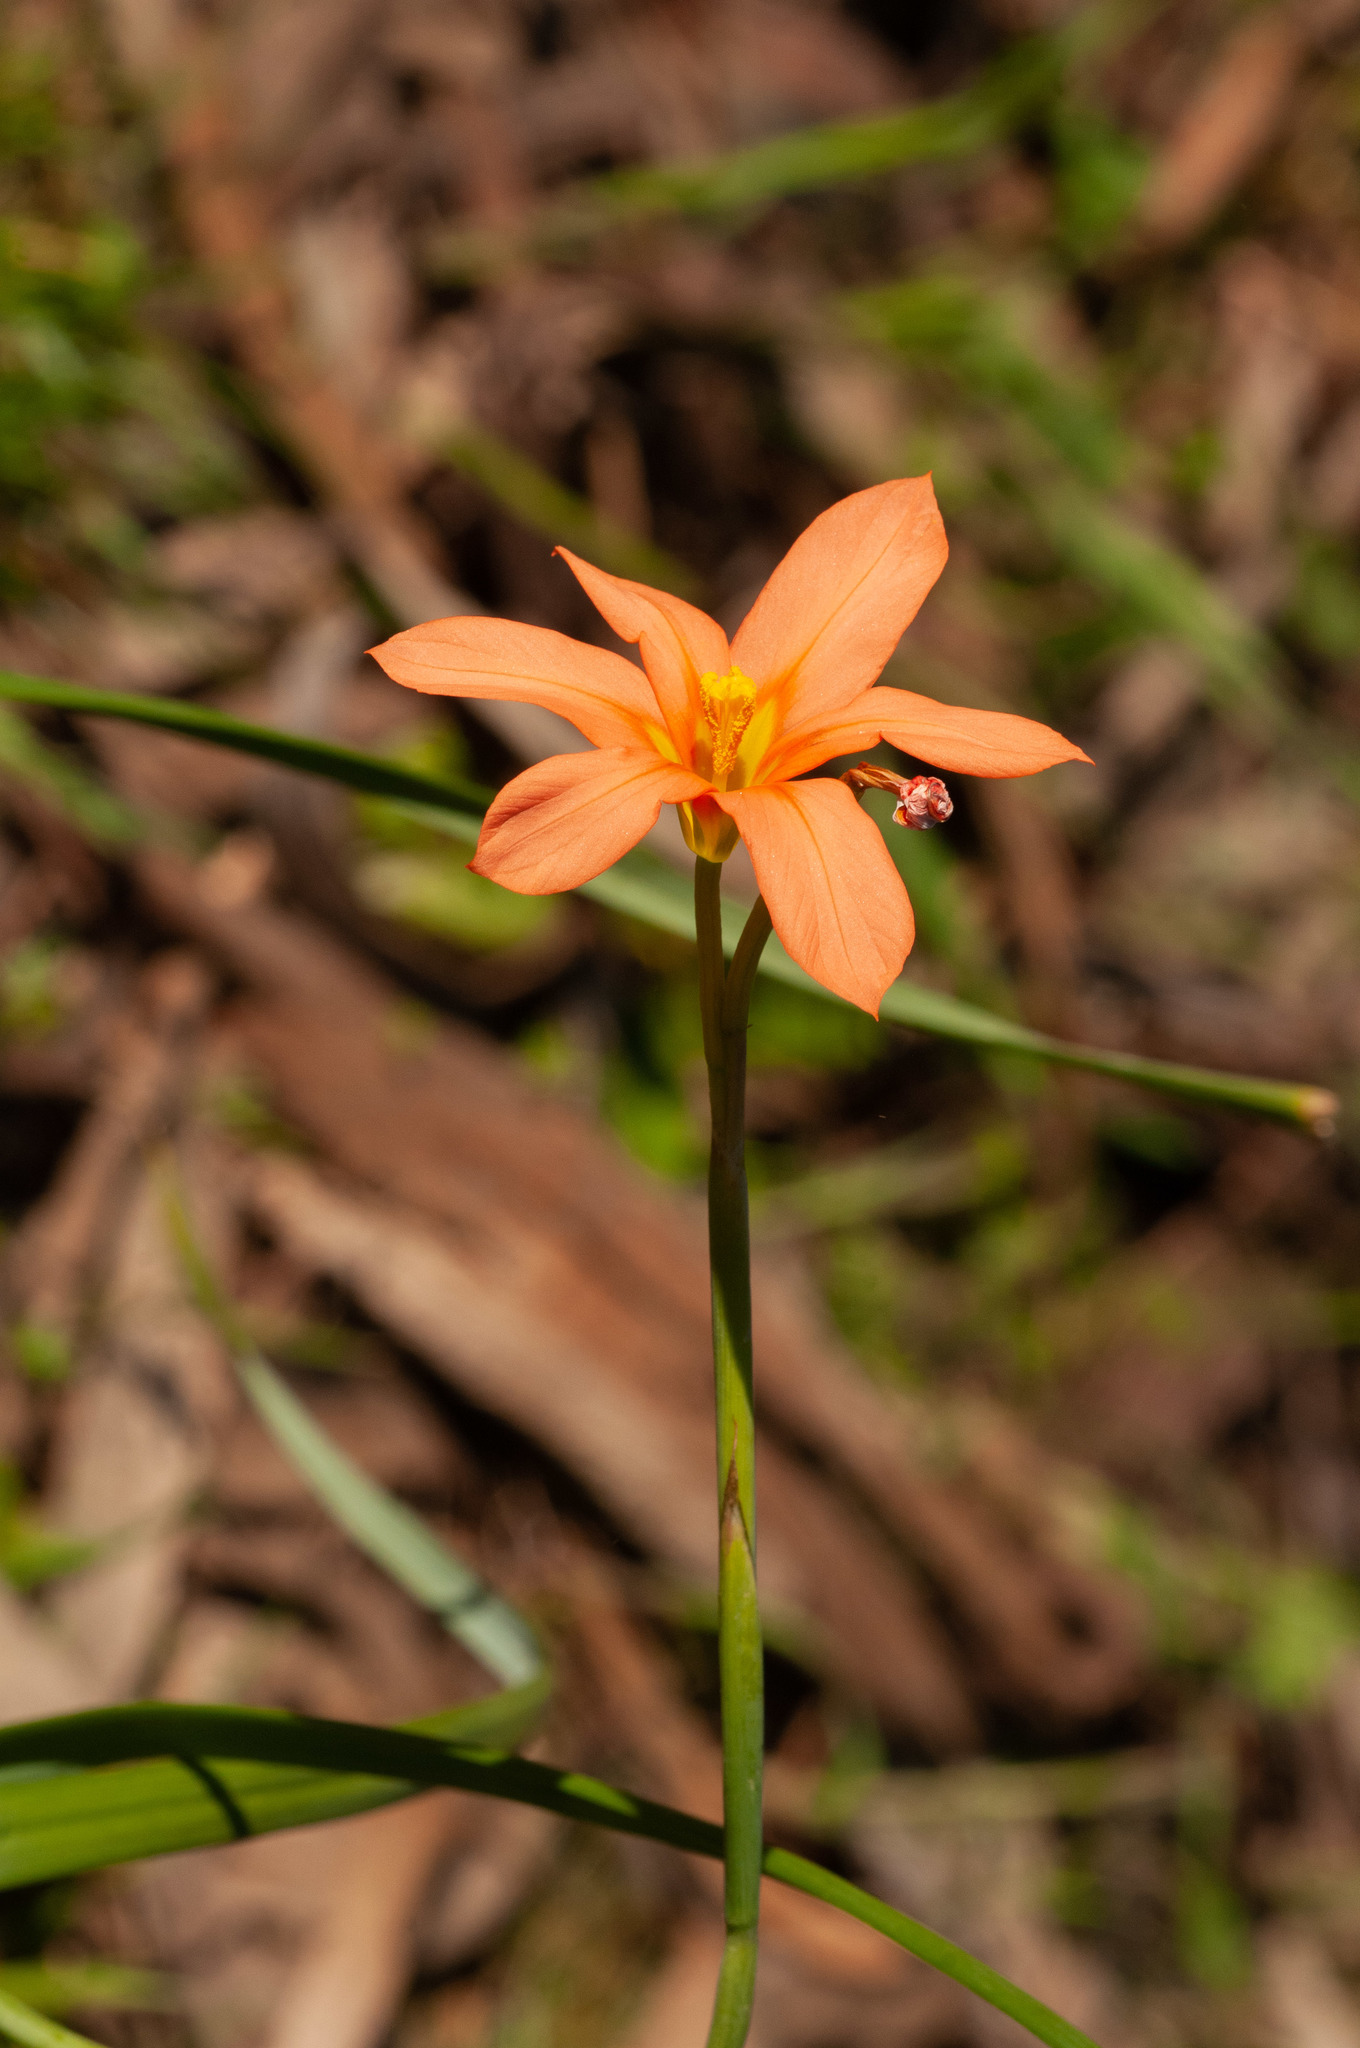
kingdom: Plantae
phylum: Tracheophyta
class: Liliopsida
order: Asparagales
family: Iridaceae
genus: Moraea
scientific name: Moraea flaccida
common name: One-leaf cape-tulip
